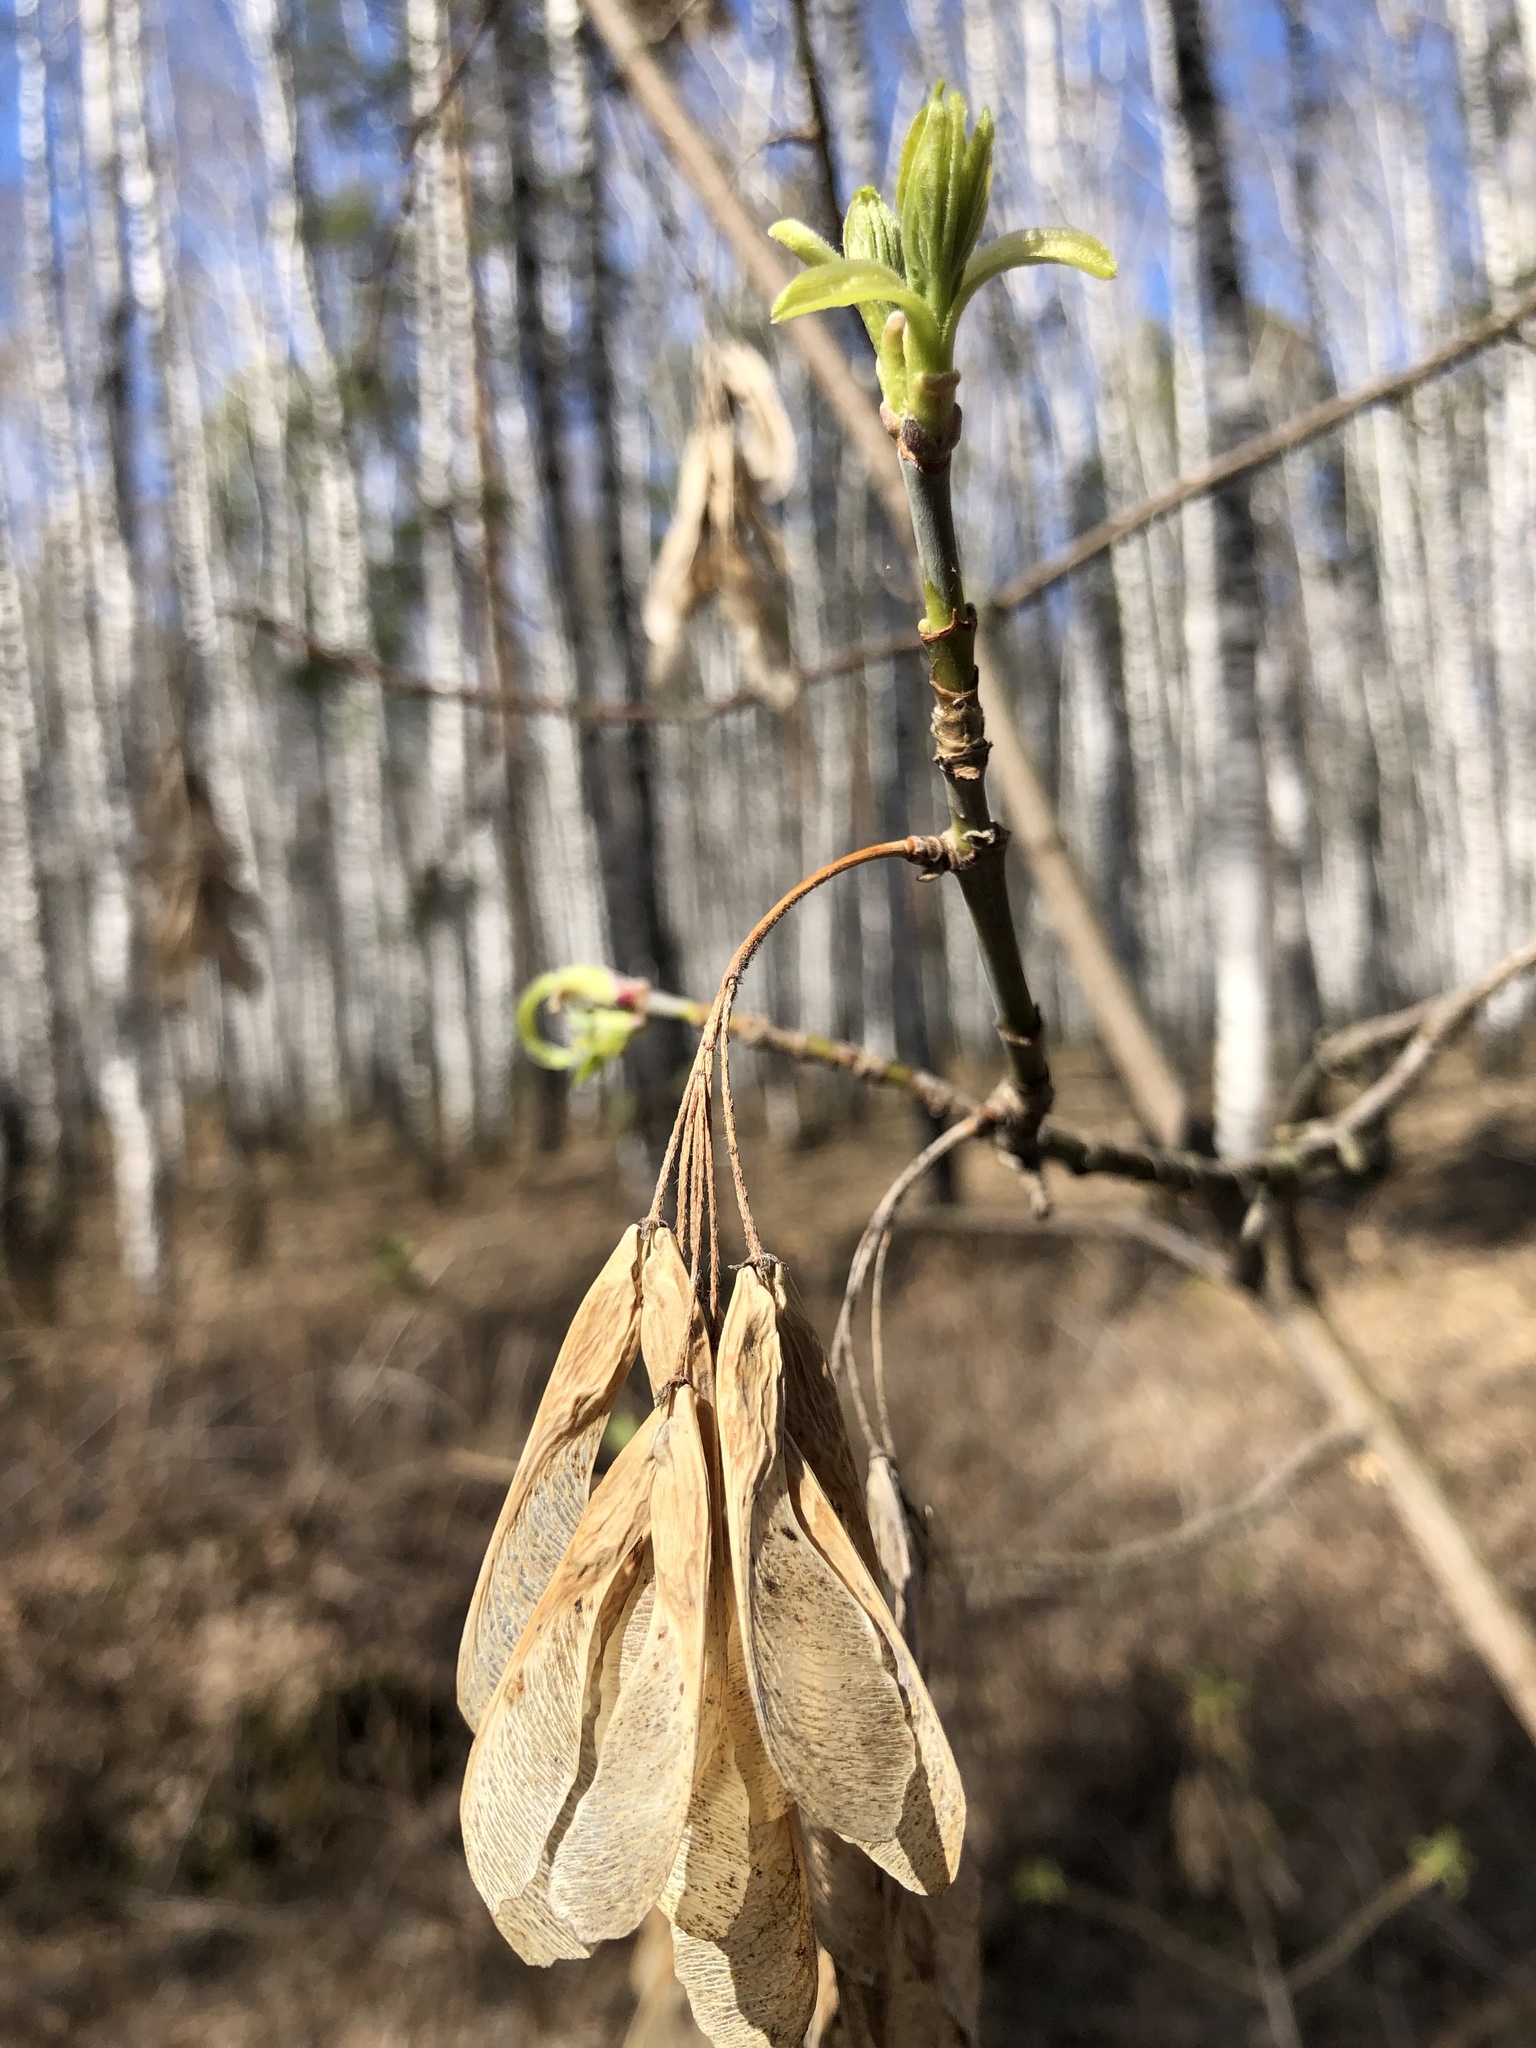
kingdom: Plantae
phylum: Tracheophyta
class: Magnoliopsida
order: Sapindales
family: Sapindaceae
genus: Acer
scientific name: Acer negundo
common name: Ashleaf maple
